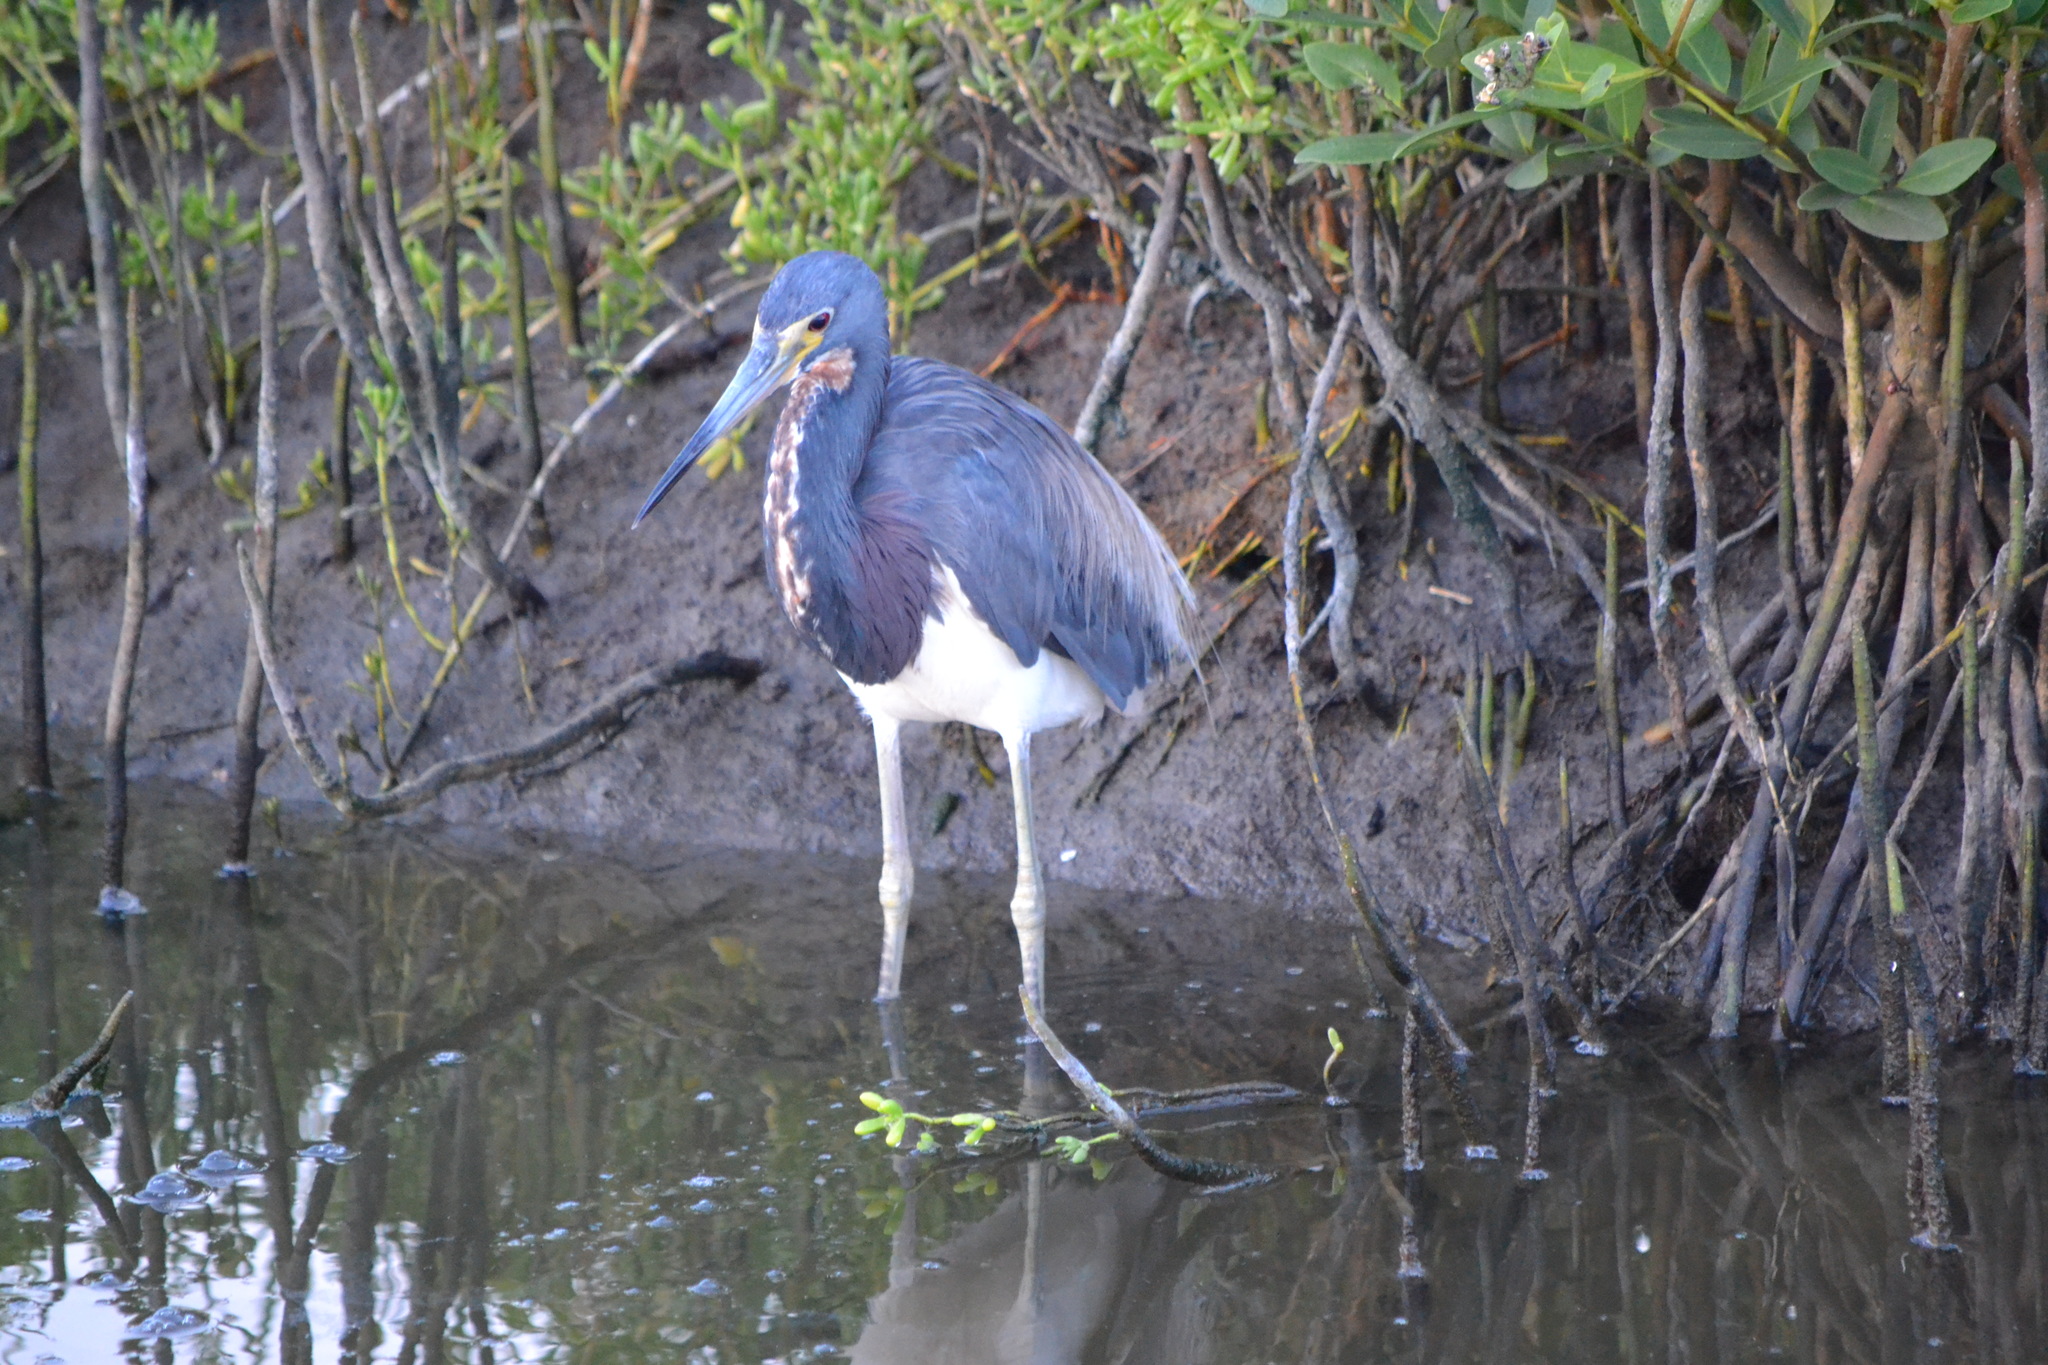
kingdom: Animalia
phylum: Chordata
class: Aves
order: Pelecaniformes
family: Ardeidae
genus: Egretta
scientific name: Egretta tricolor
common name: Tricolored heron
